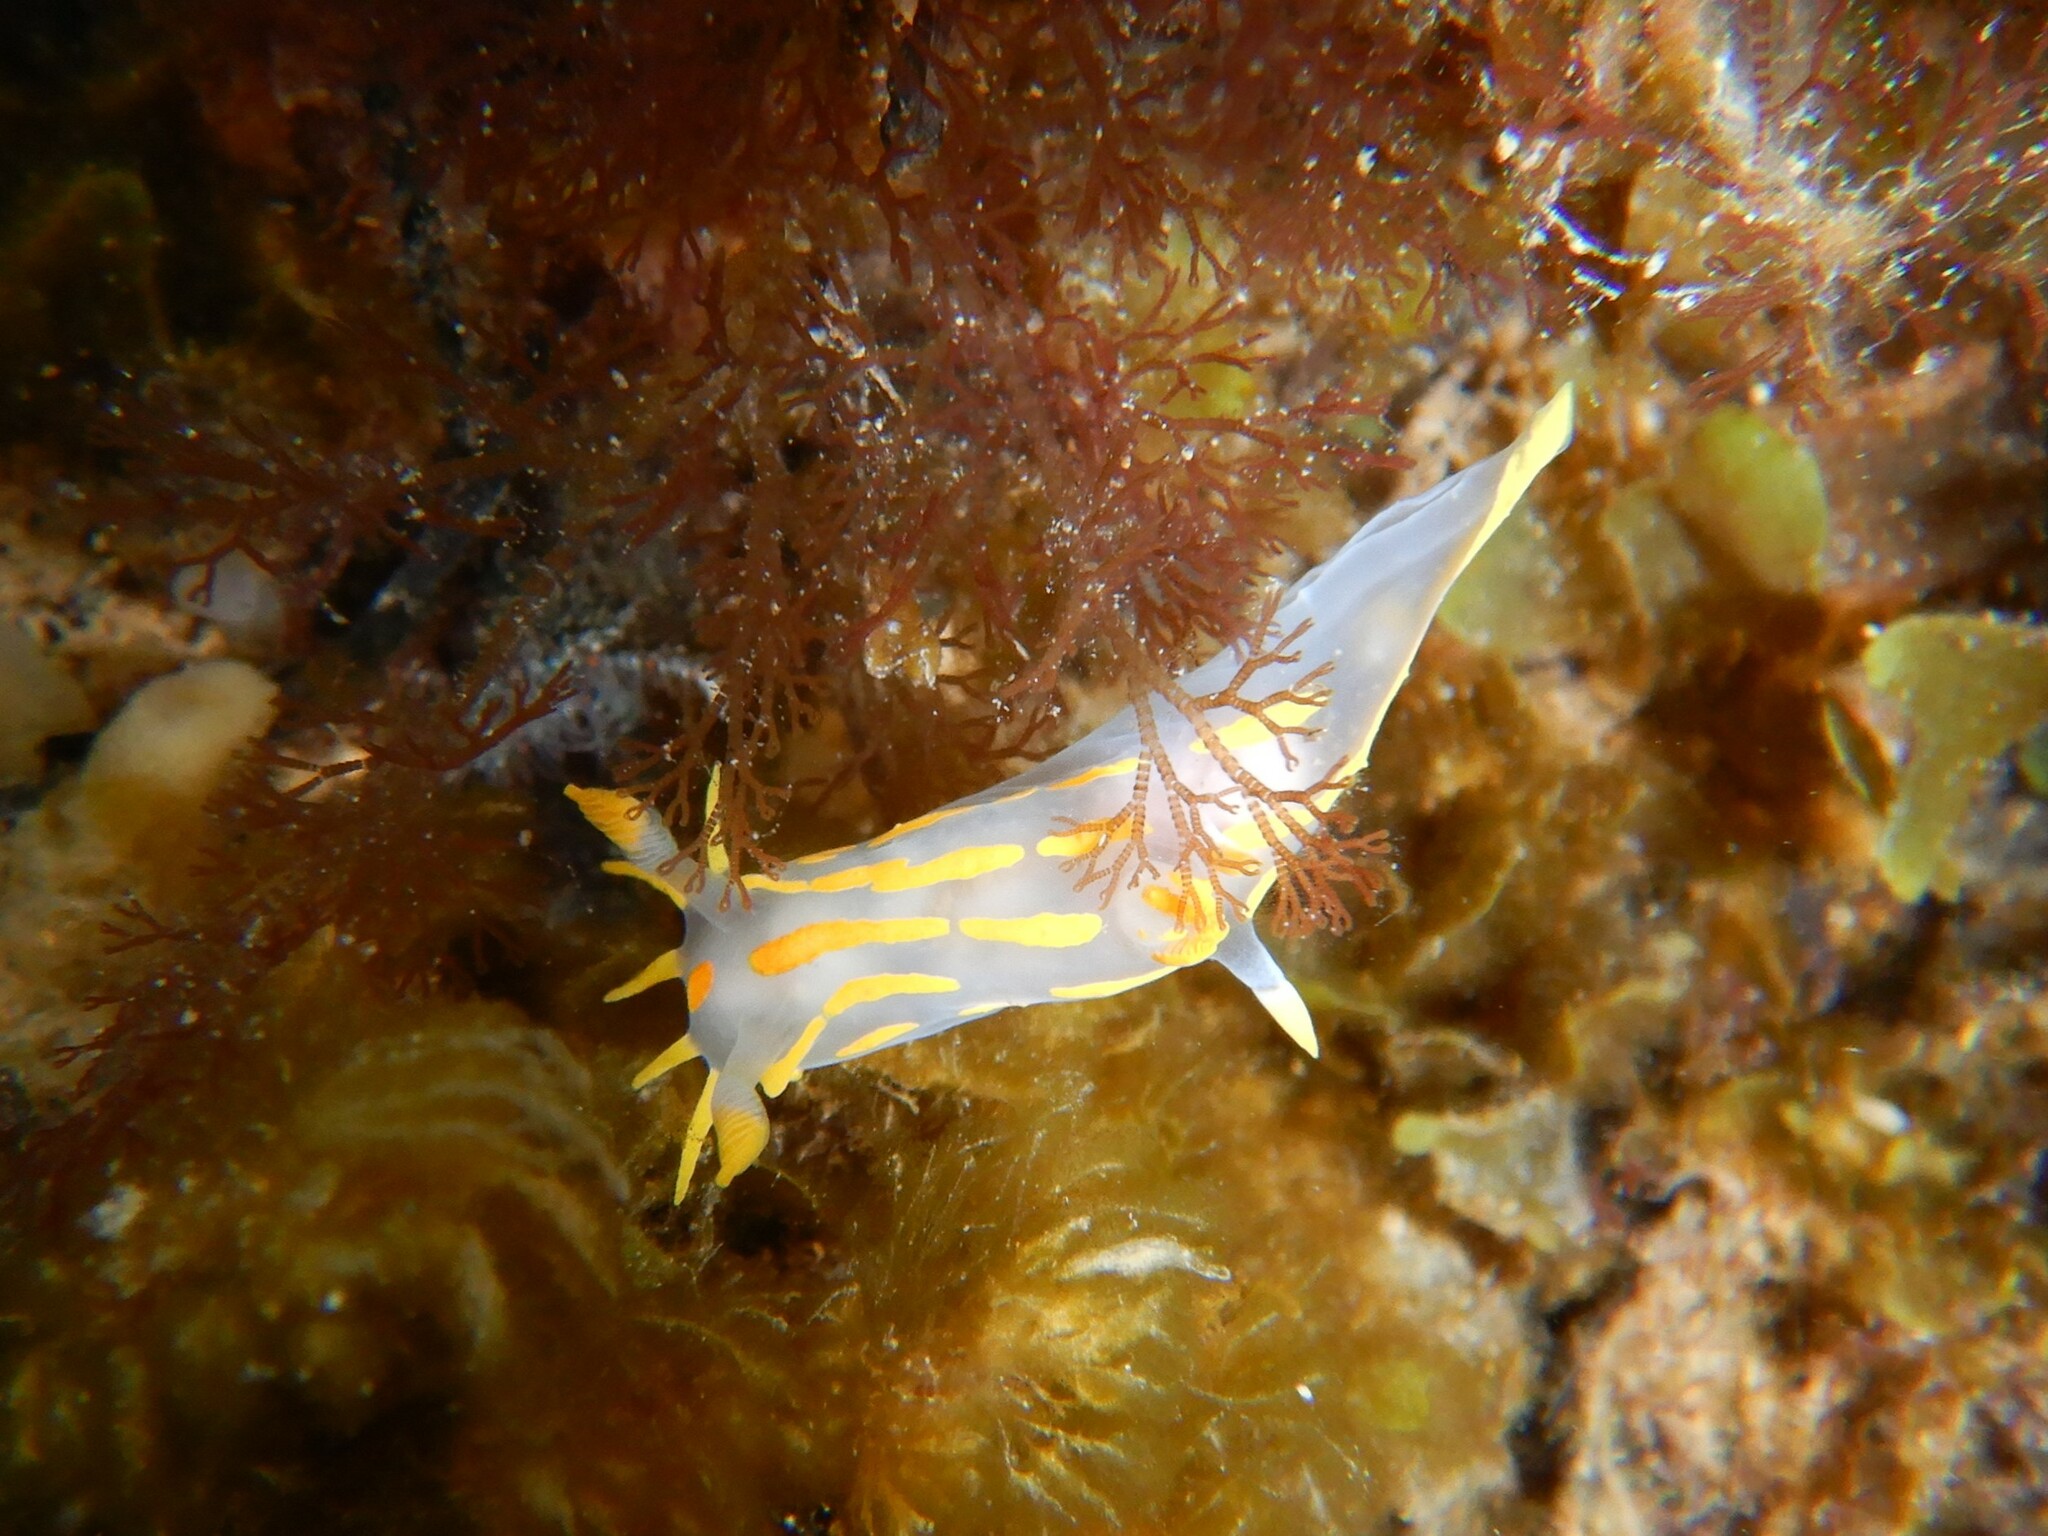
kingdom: Animalia
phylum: Mollusca
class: Gastropoda
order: Nudibranchia
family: Polyceridae
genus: Polycera
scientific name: Polycera quadrilineata
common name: Four-striped polycera
